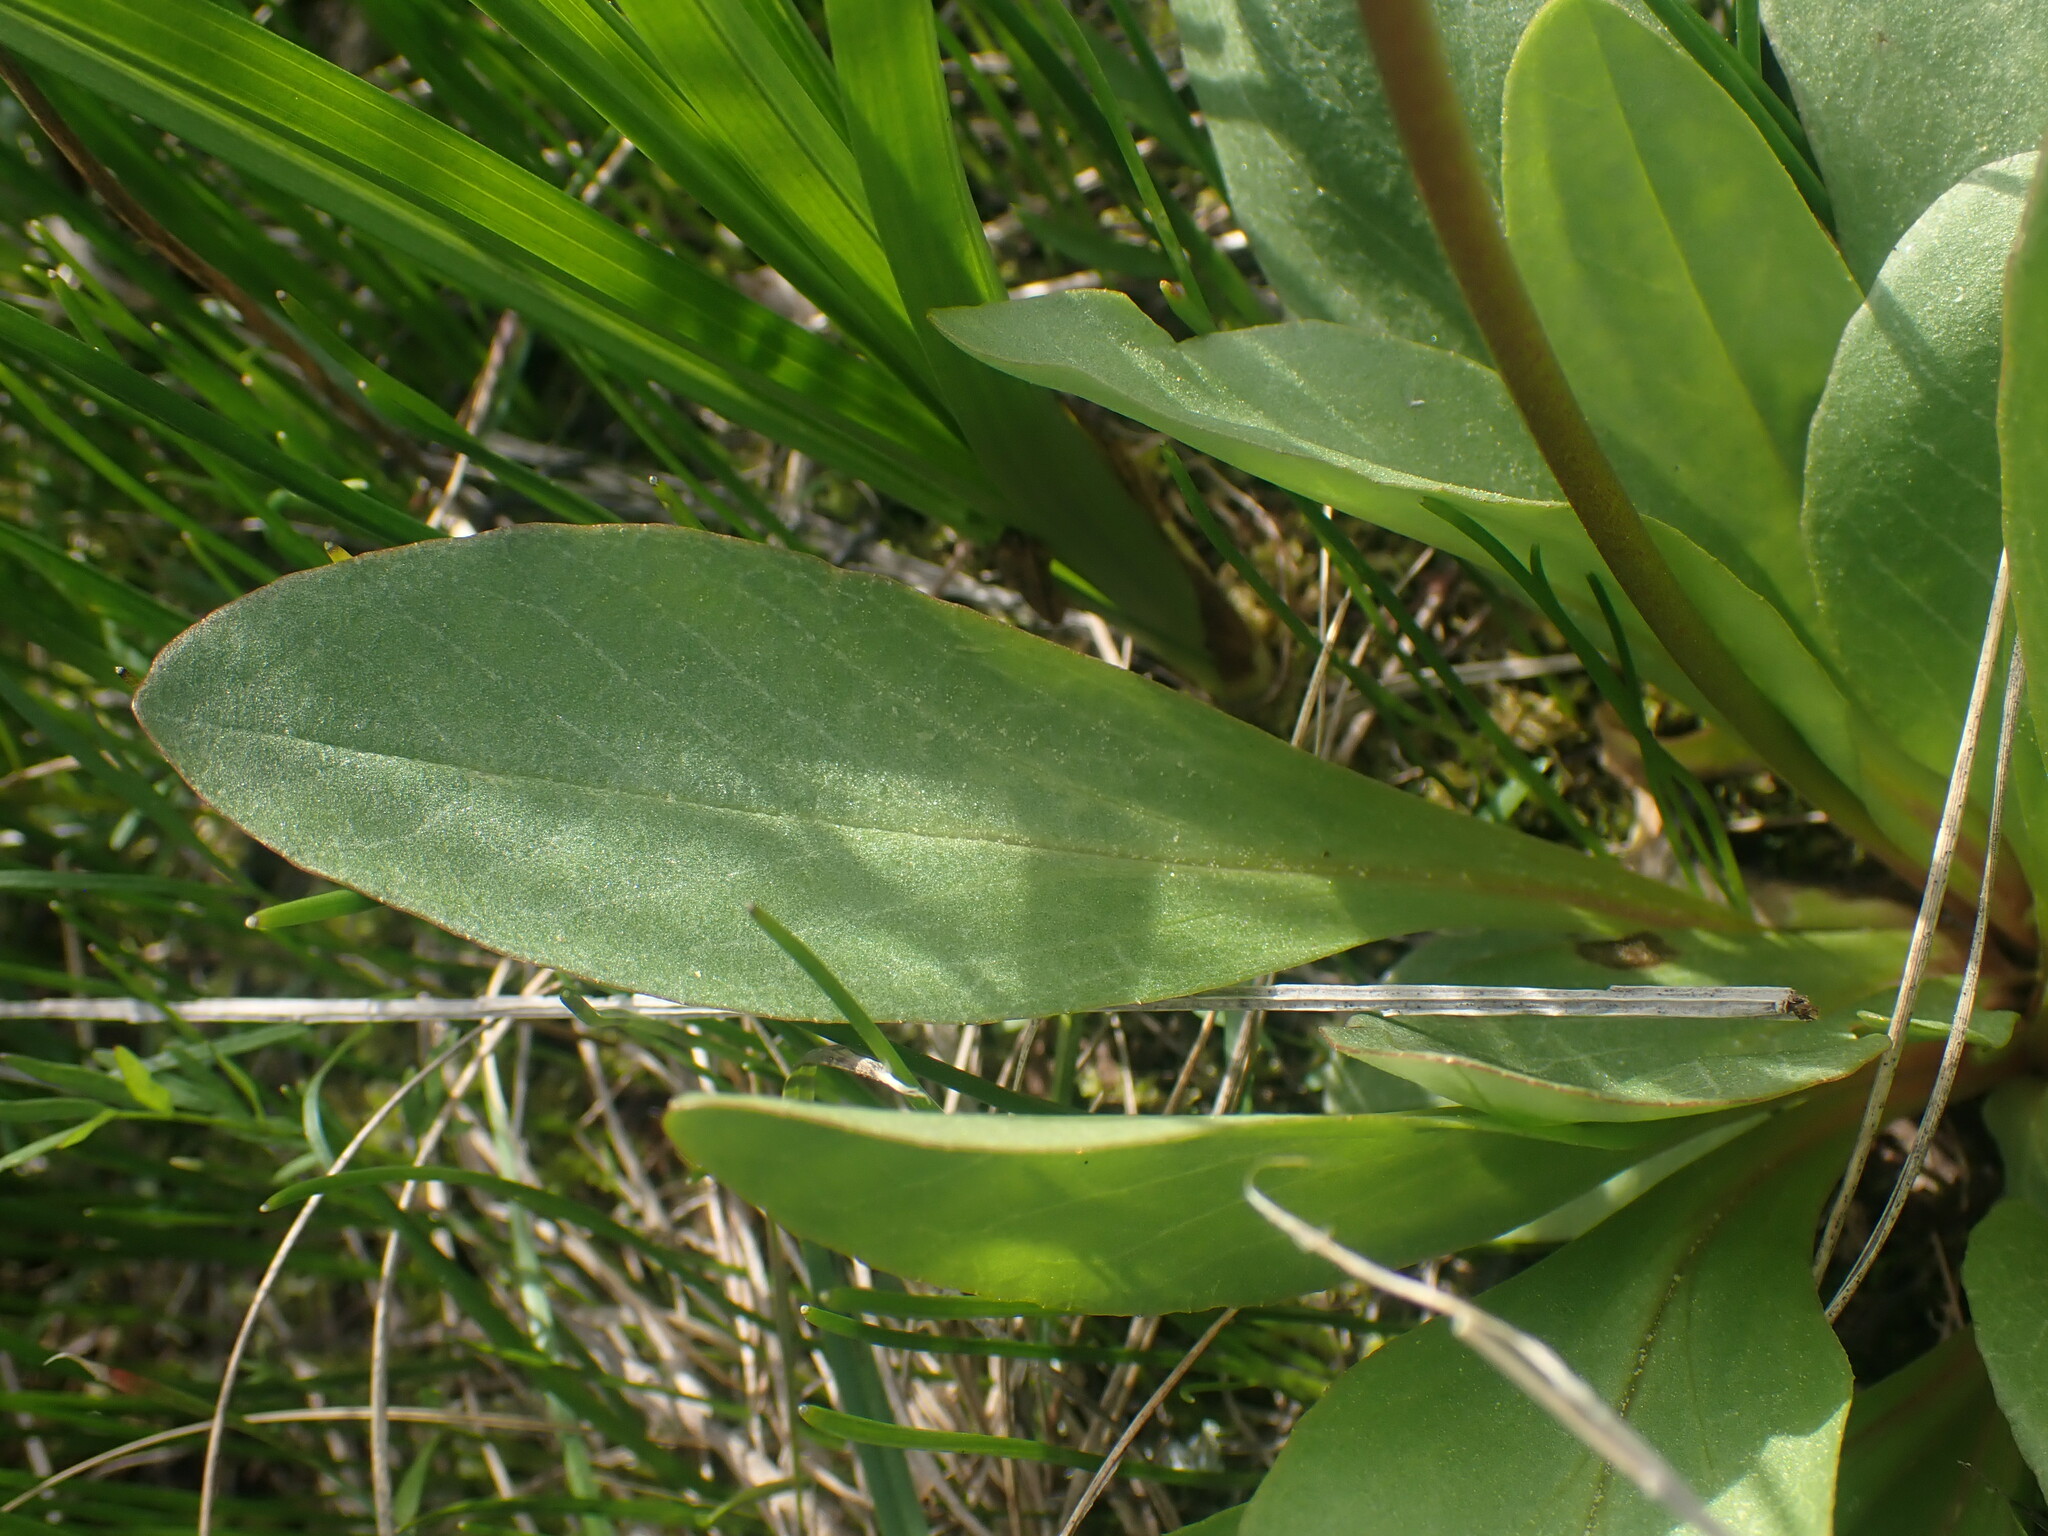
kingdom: Plantae
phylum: Tracheophyta
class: Magnoliopsida
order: Ericales
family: Primulaceae
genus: Dodecatheon
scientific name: Dodecatheon pulchellum
